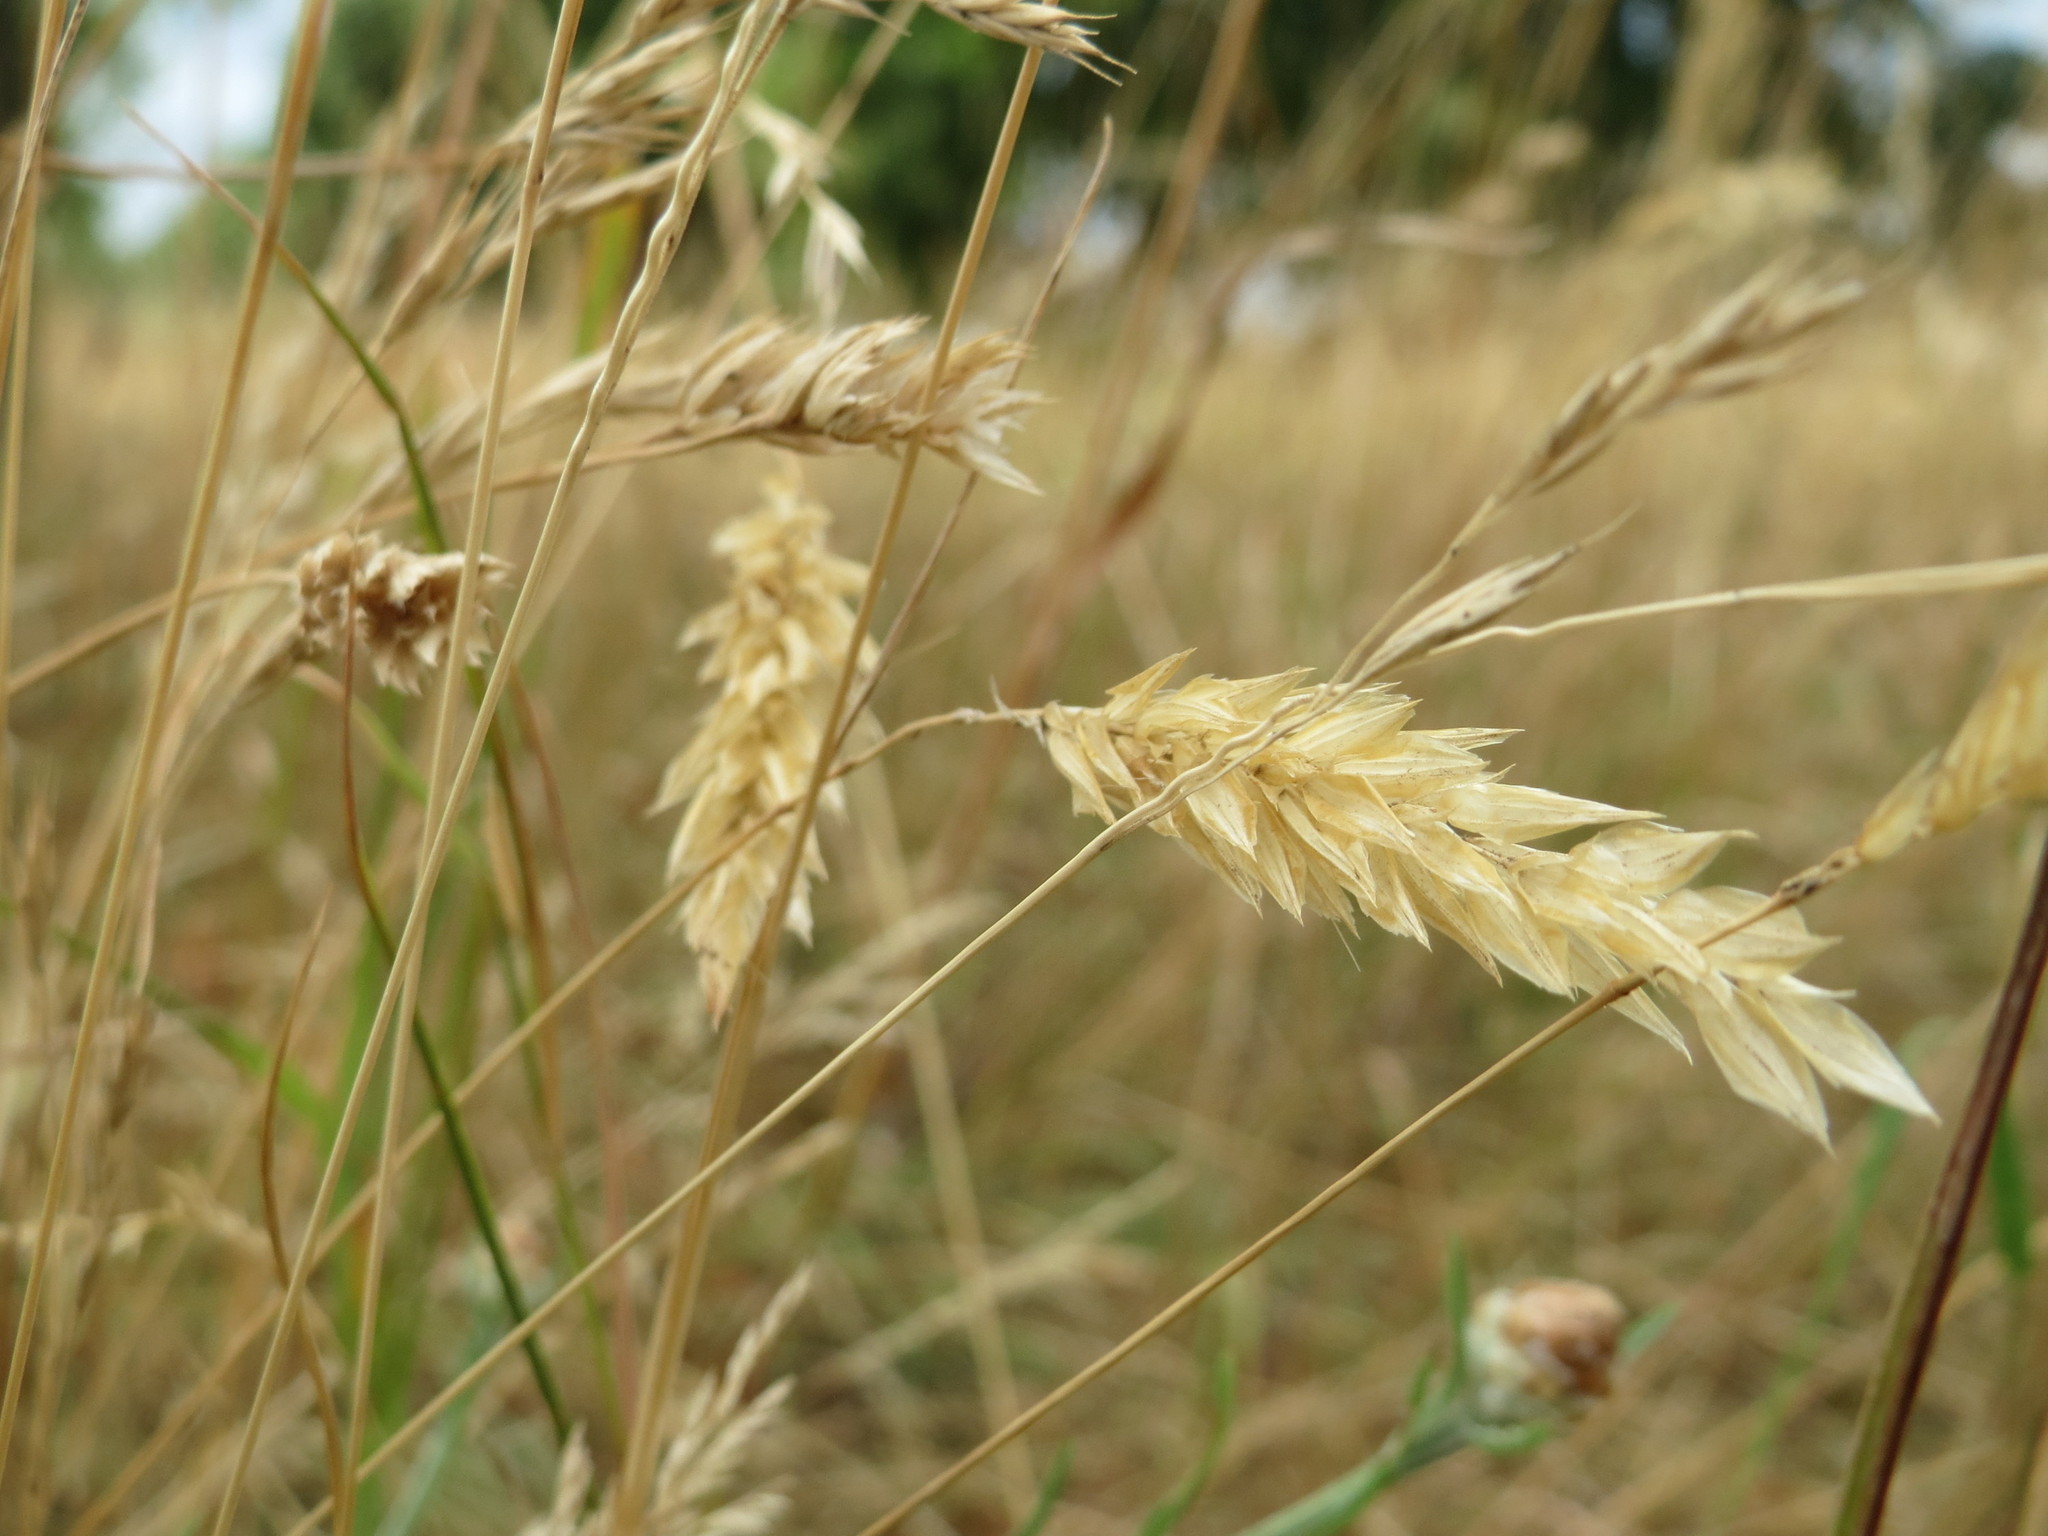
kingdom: Plantae
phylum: Tracheophyta
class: Liliopsida
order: Poales
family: Poaceae
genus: Anthoxanthum
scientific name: Anthoxanthum odoratum
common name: Sweet vernalgrass
